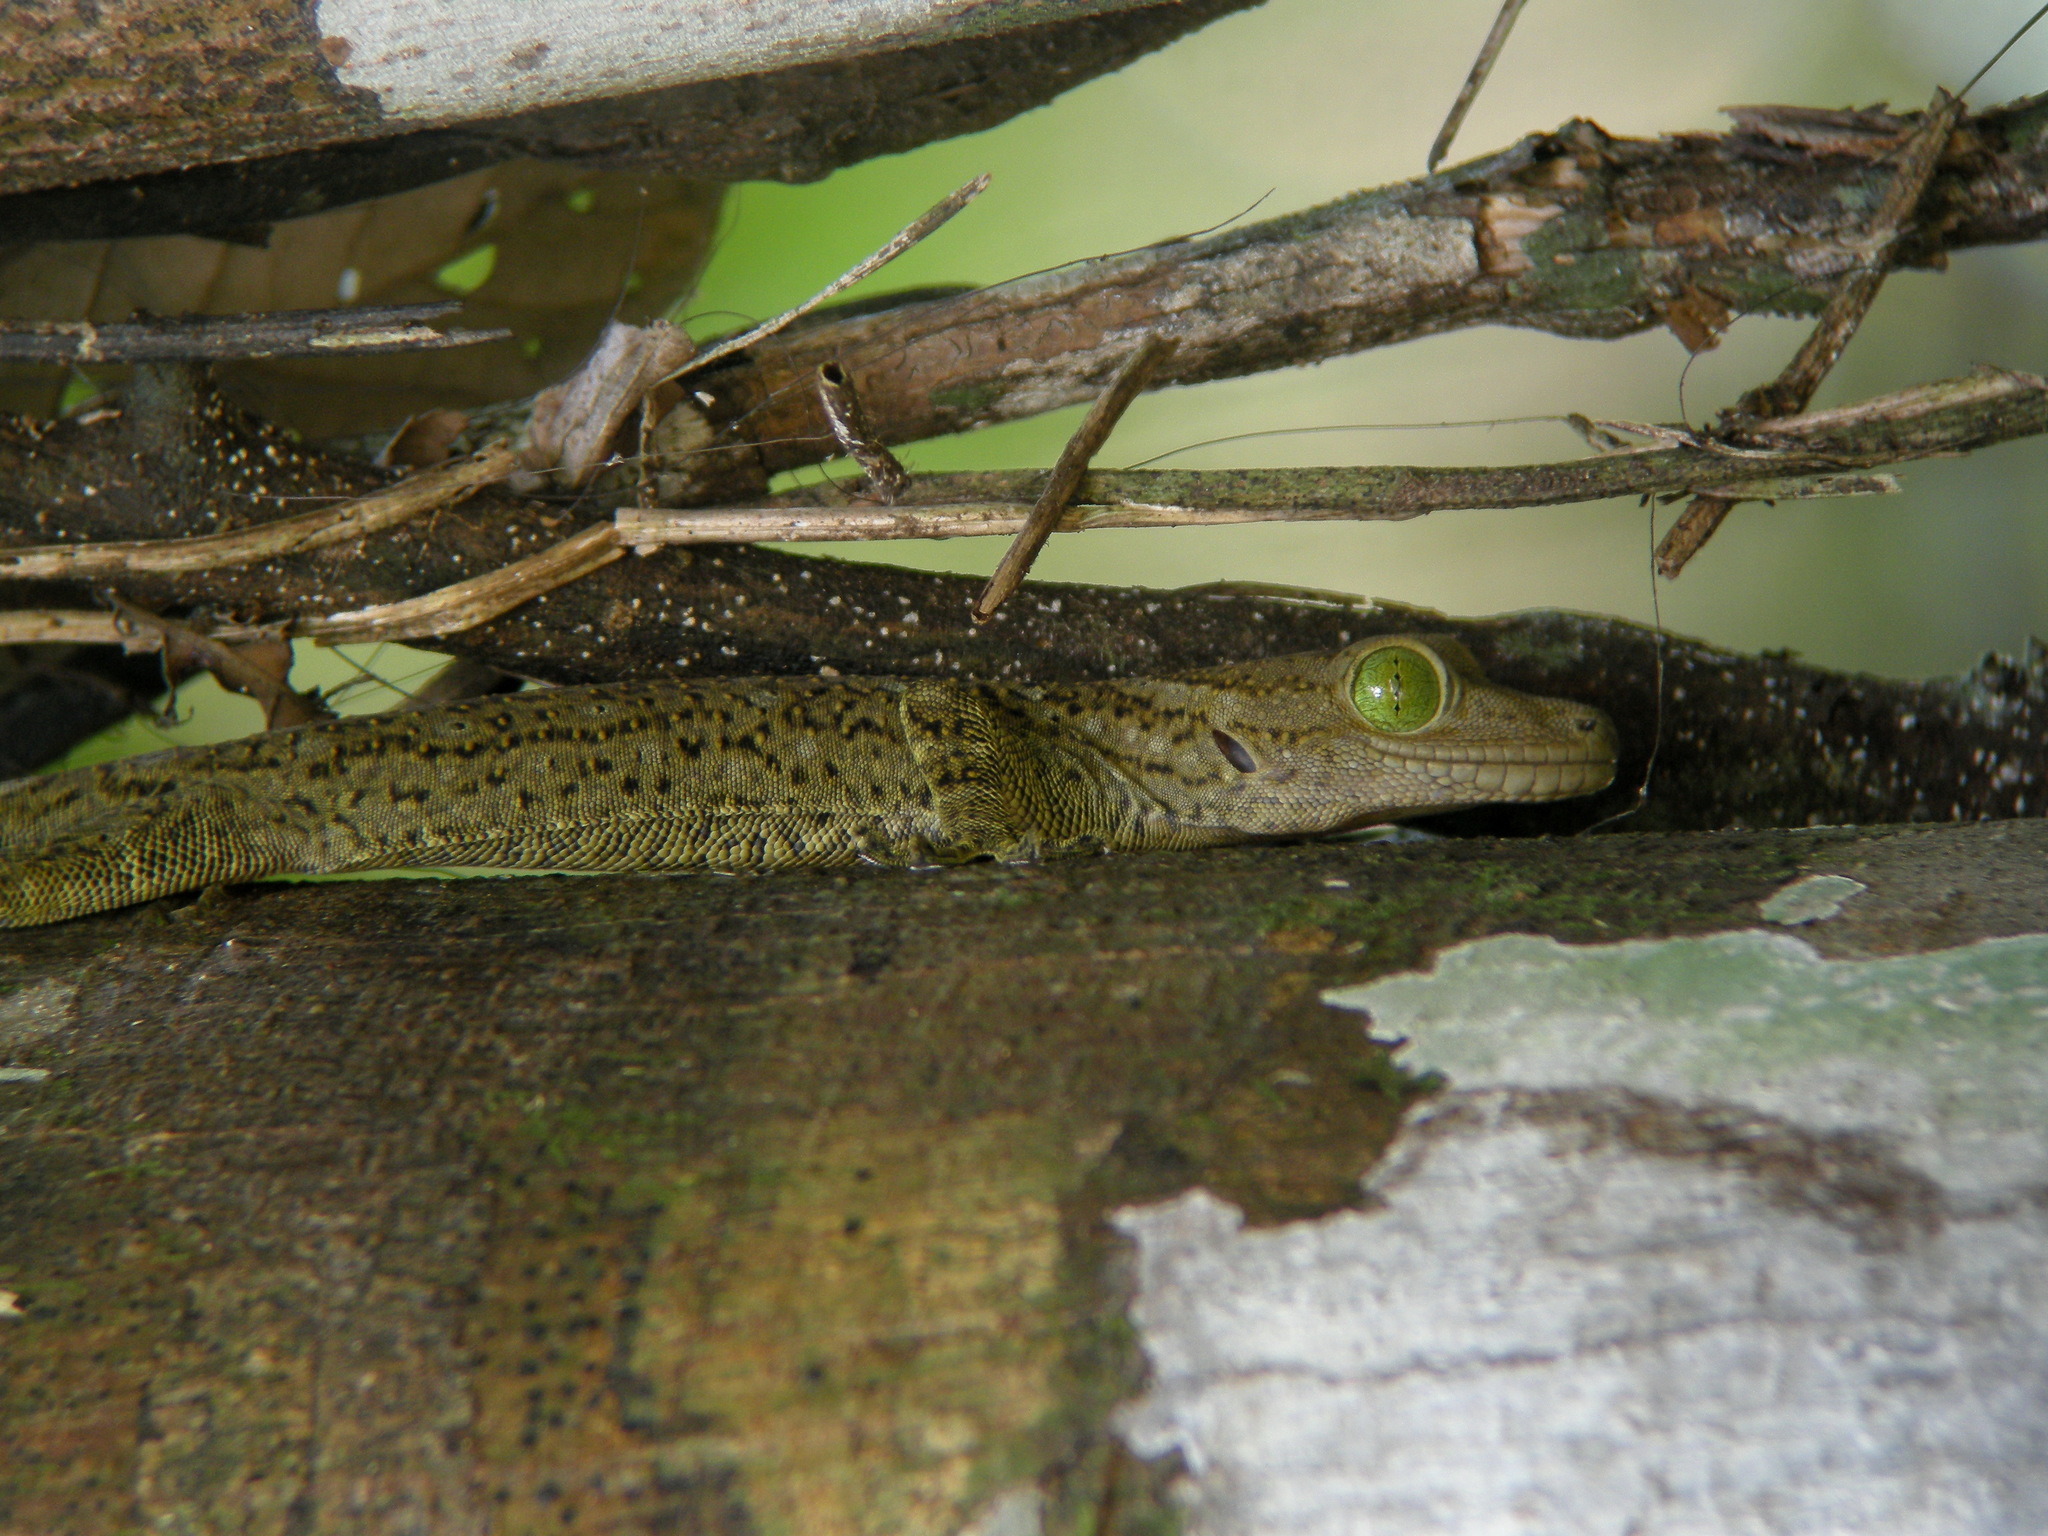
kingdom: Animalia
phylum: Chordata
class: Squamata
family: Gekkonidae
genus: Gekko
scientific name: Gekko smithii
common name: Large forest gecko
